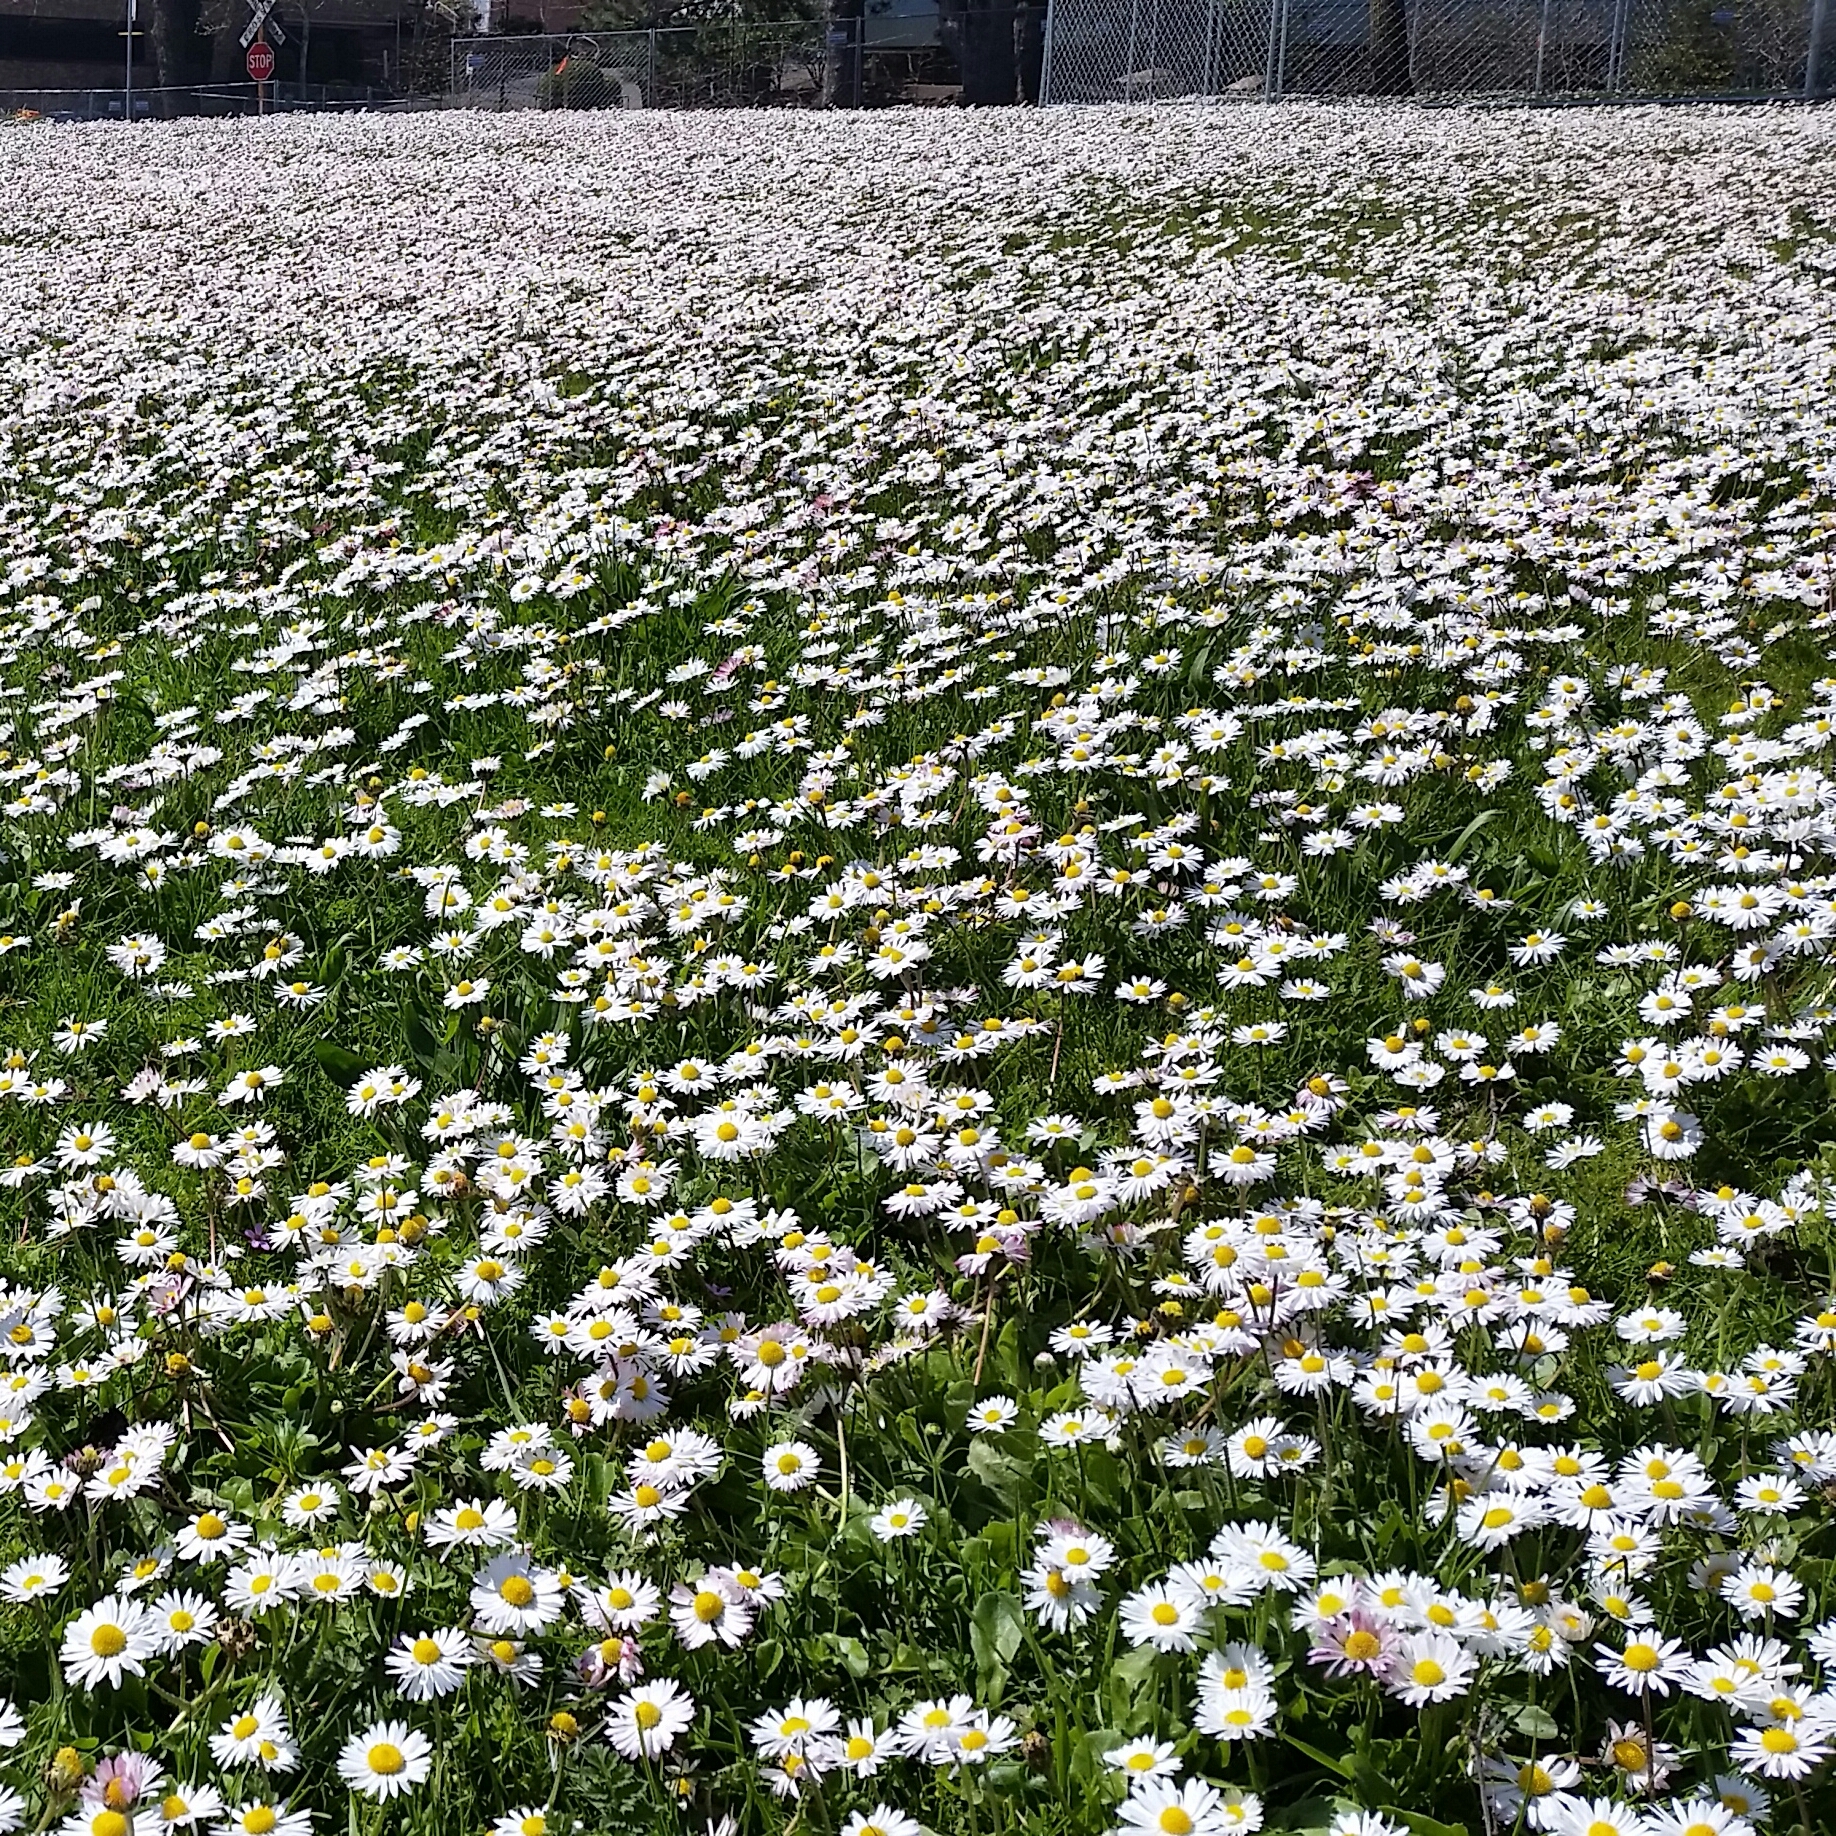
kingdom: Plantae
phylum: Tracheophyta
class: Magnoliopsida
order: Asterales
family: Asteraceae
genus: Bellis
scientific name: Bellis perennis
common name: Lawndaisy
